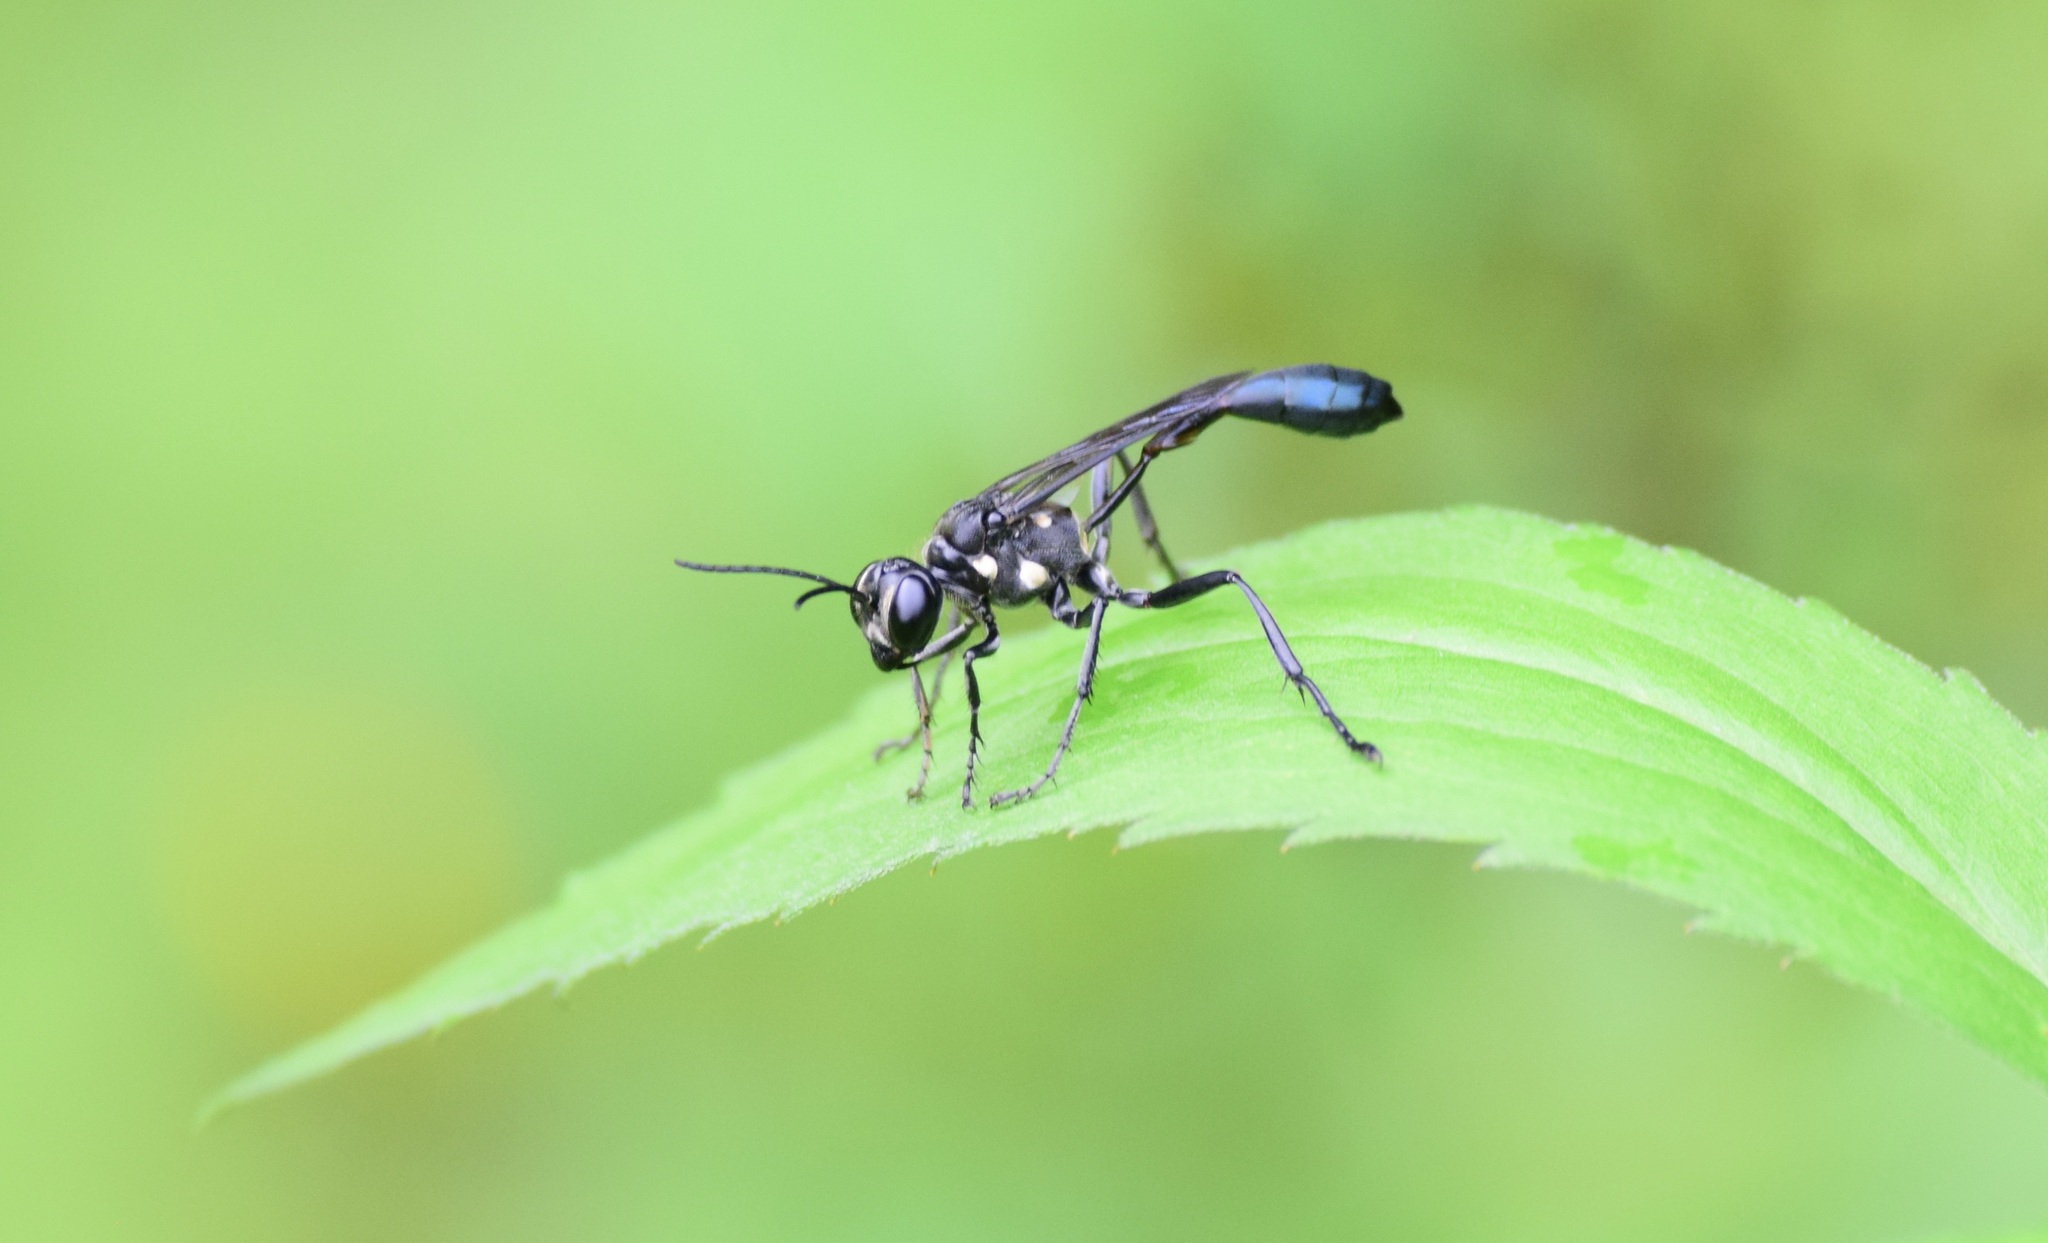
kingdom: Animalia
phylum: Arthropoda
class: Insecta
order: Hymenoptera
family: Sphecidae
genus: Eremnophila
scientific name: Eremnophila aureonotata
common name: Gold-marked thread-waisted wasp
